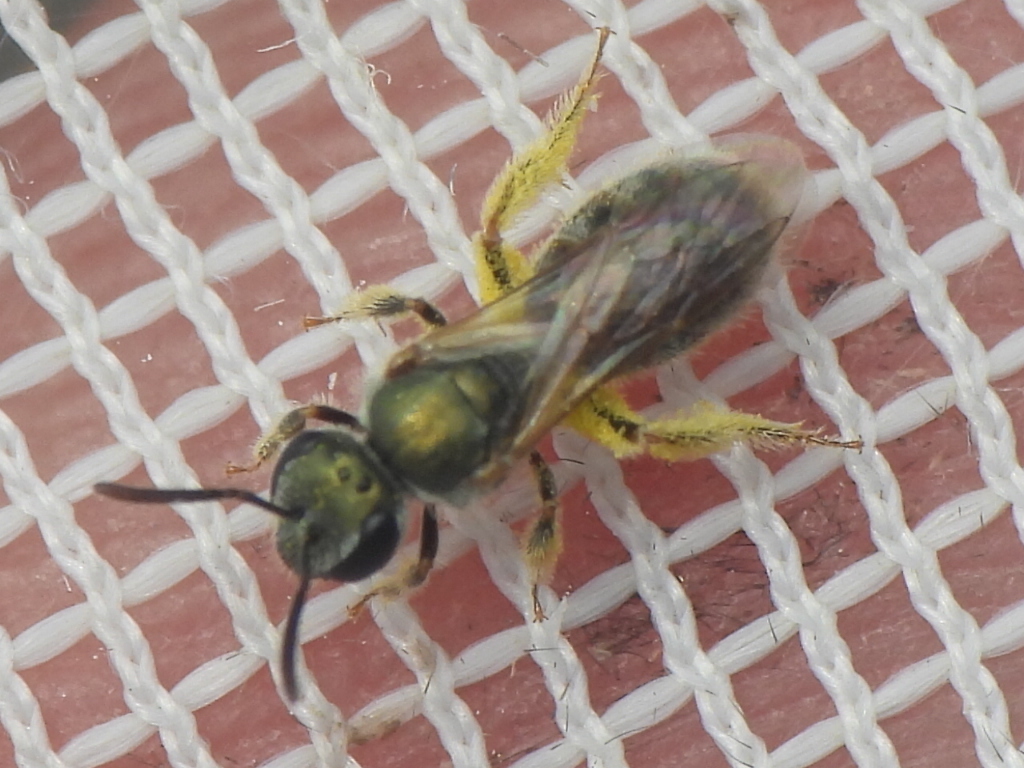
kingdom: Animalia
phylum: Arthropoda
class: Insecta
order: Hymenoptera
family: Halictidae
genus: Dialictus
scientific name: Dialictus
